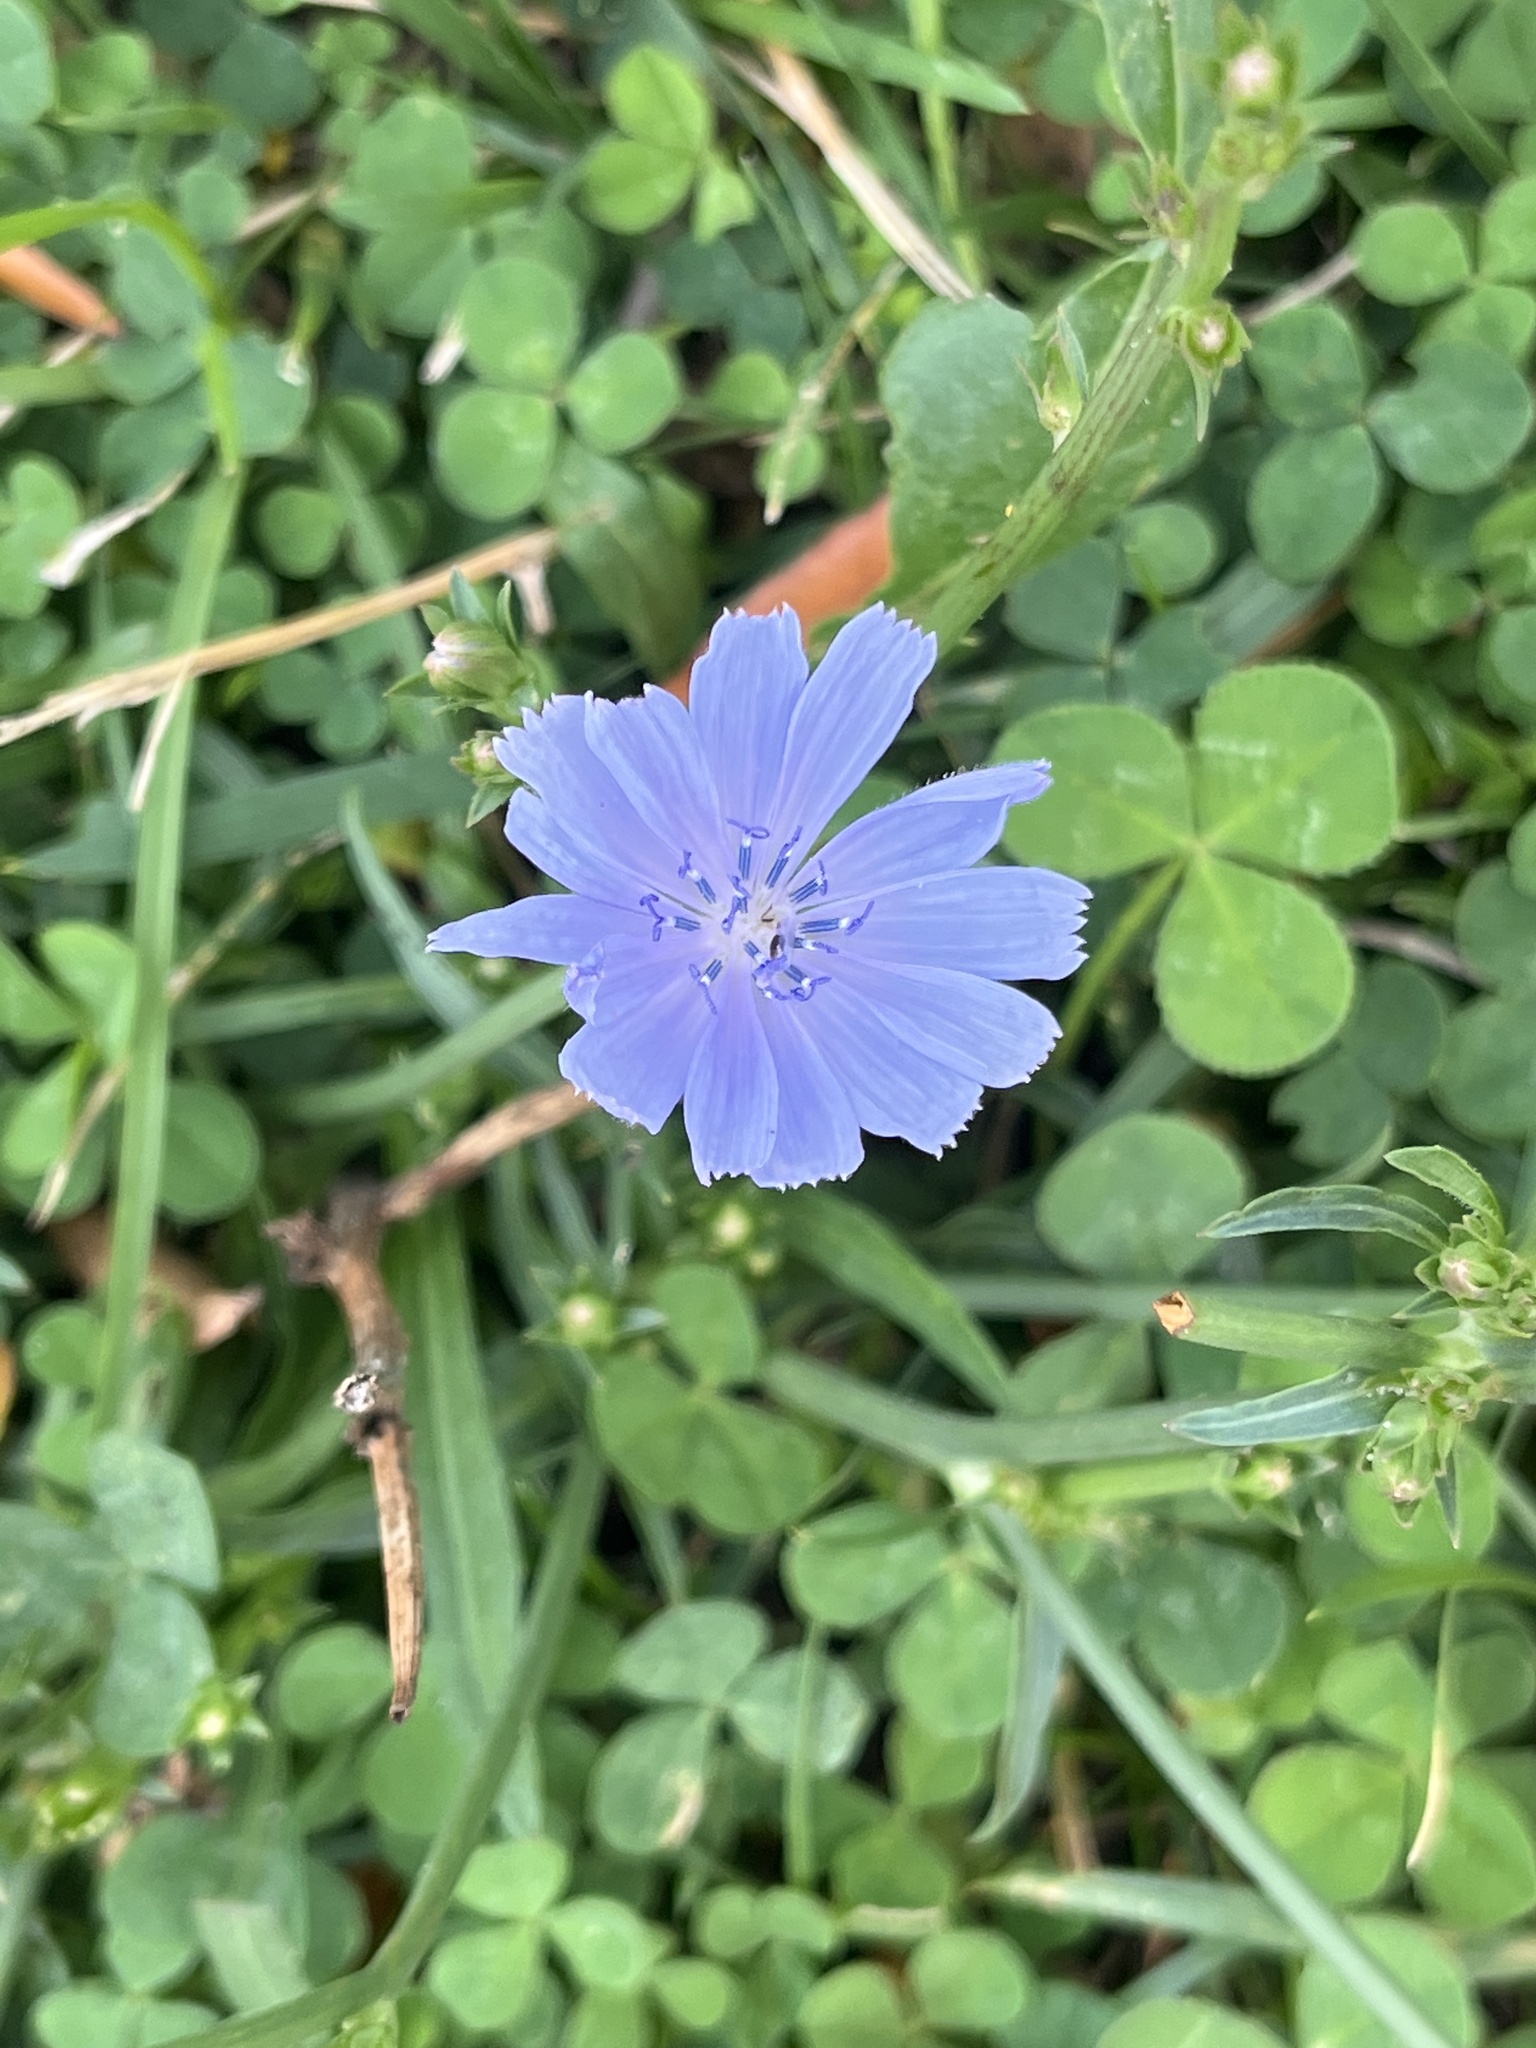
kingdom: Plantae
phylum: Tracheophyta
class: Magnoliopsida
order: Asterales
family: Asteraceae
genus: Cichorium
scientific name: Cichorium intybus
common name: Chicory
